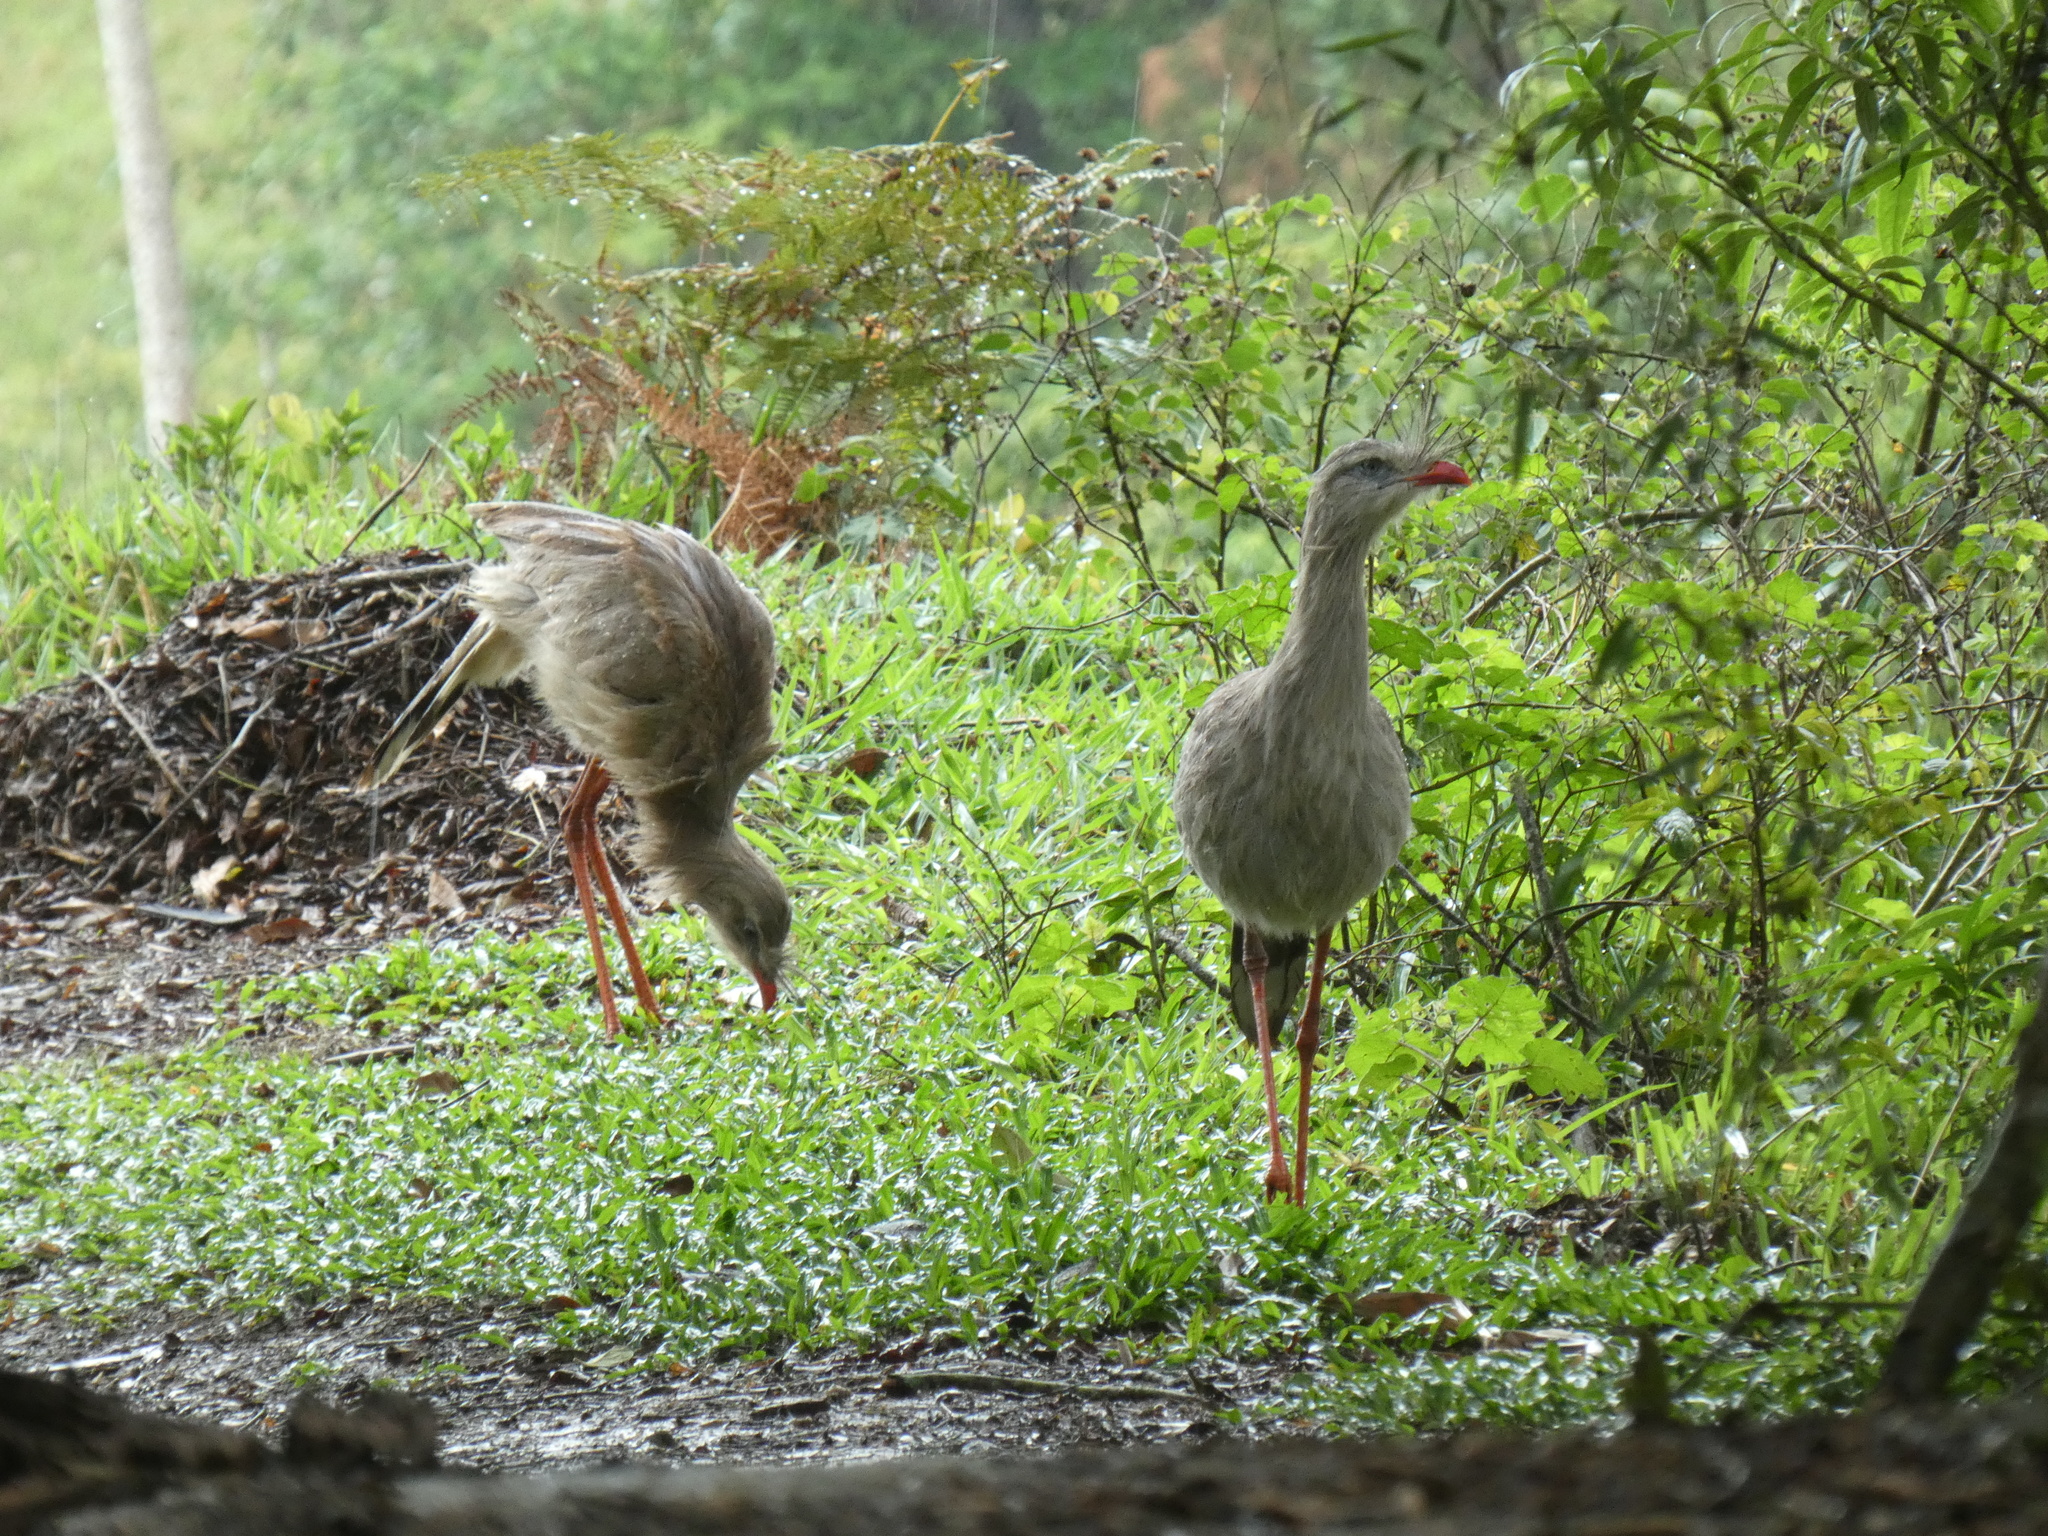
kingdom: Animalia
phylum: Chordata
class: Aves
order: Cariamiformes
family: Cariamidae
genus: Cariama
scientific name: Cariama cristata
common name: Red-legged seriema
